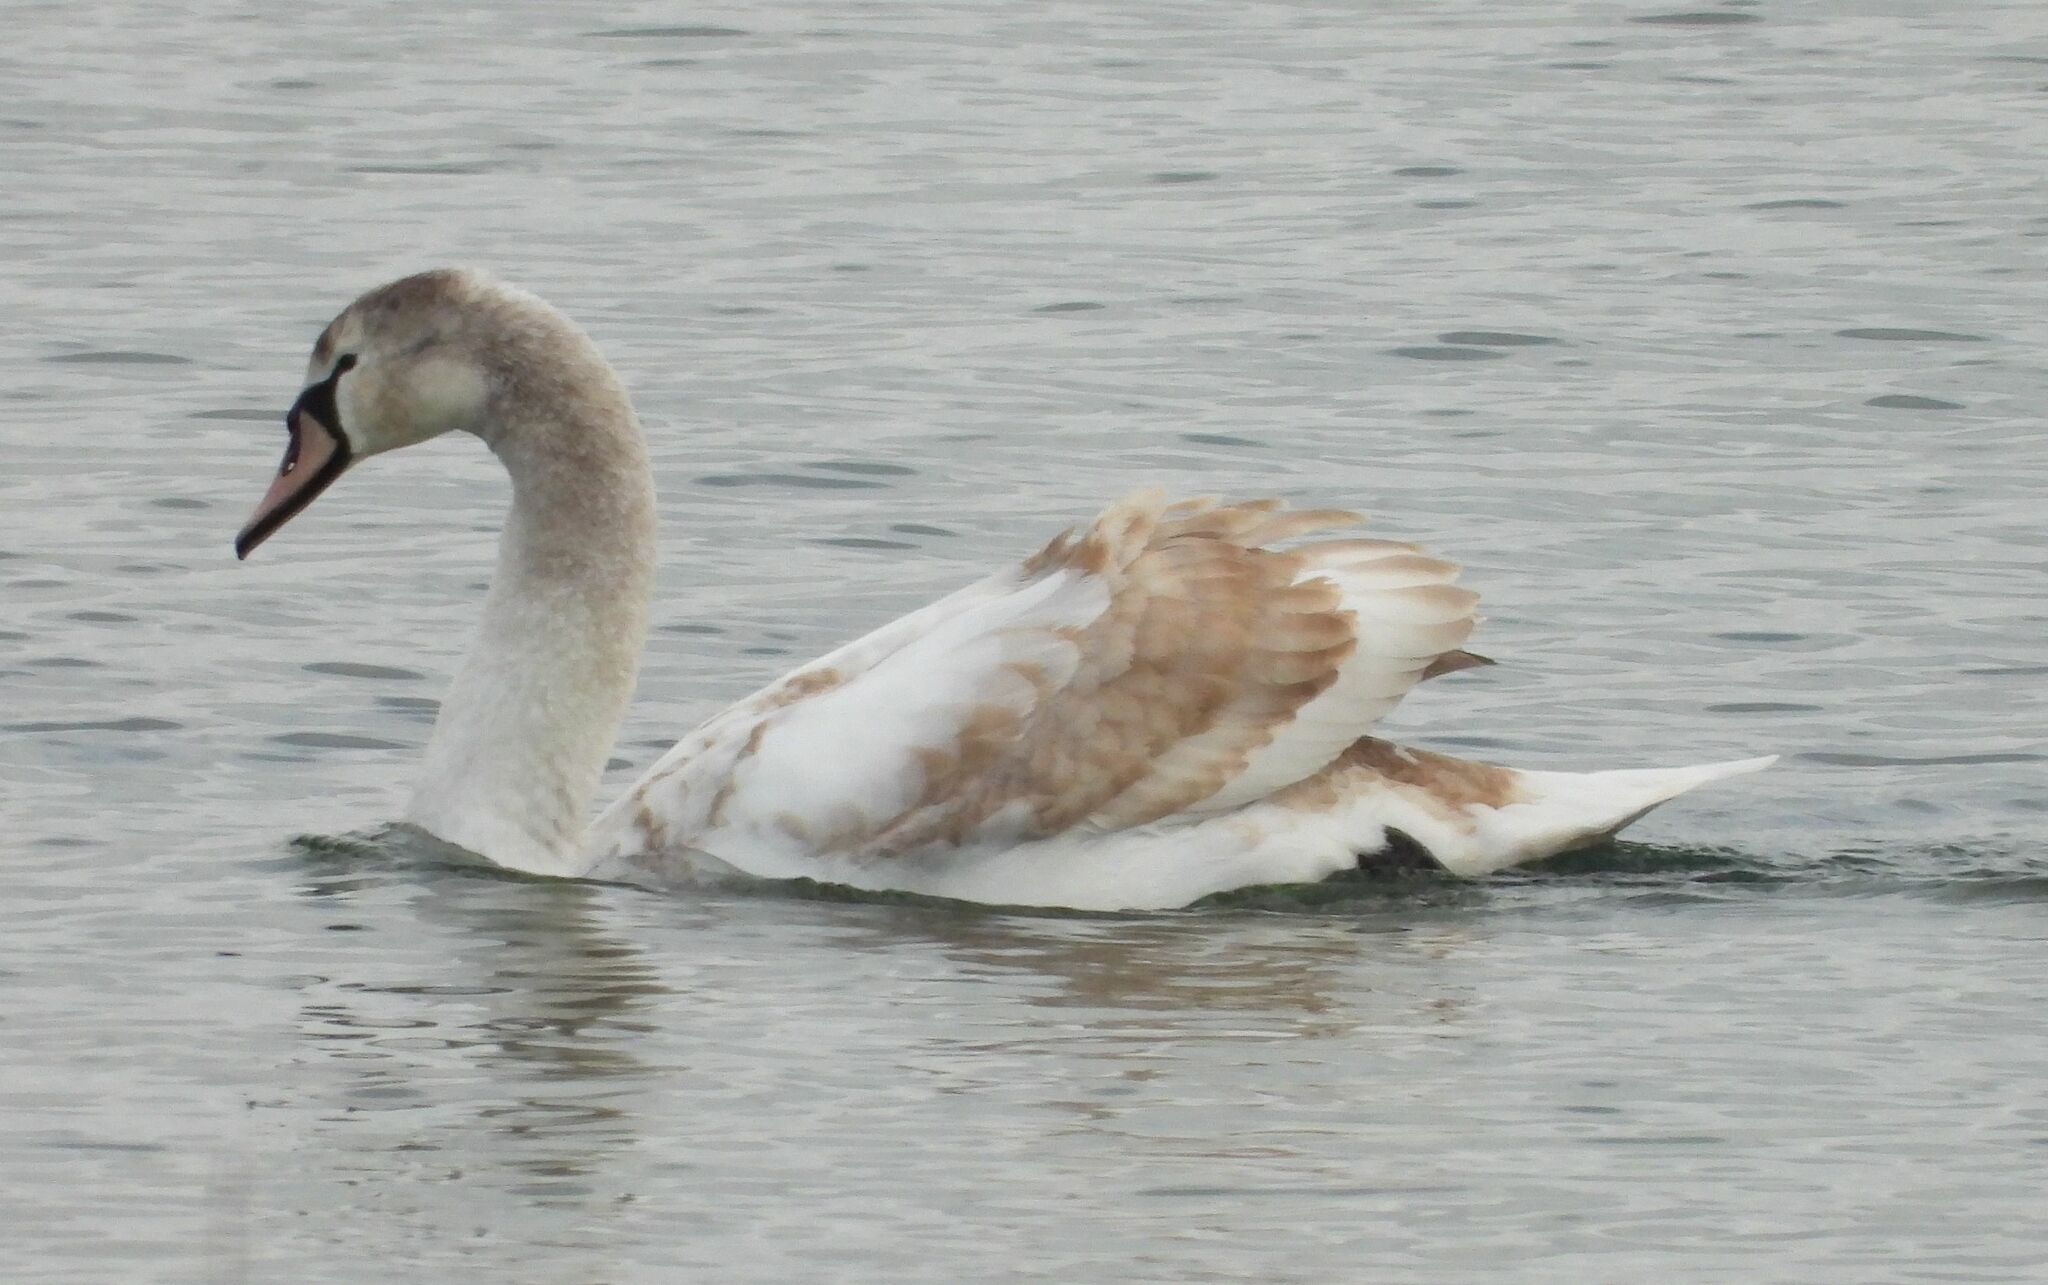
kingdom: Animalia
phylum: Chordata
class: Aves
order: Anseriformes
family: Anatidae
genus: Cygnus
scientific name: Cygnus olor
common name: Mute swan
